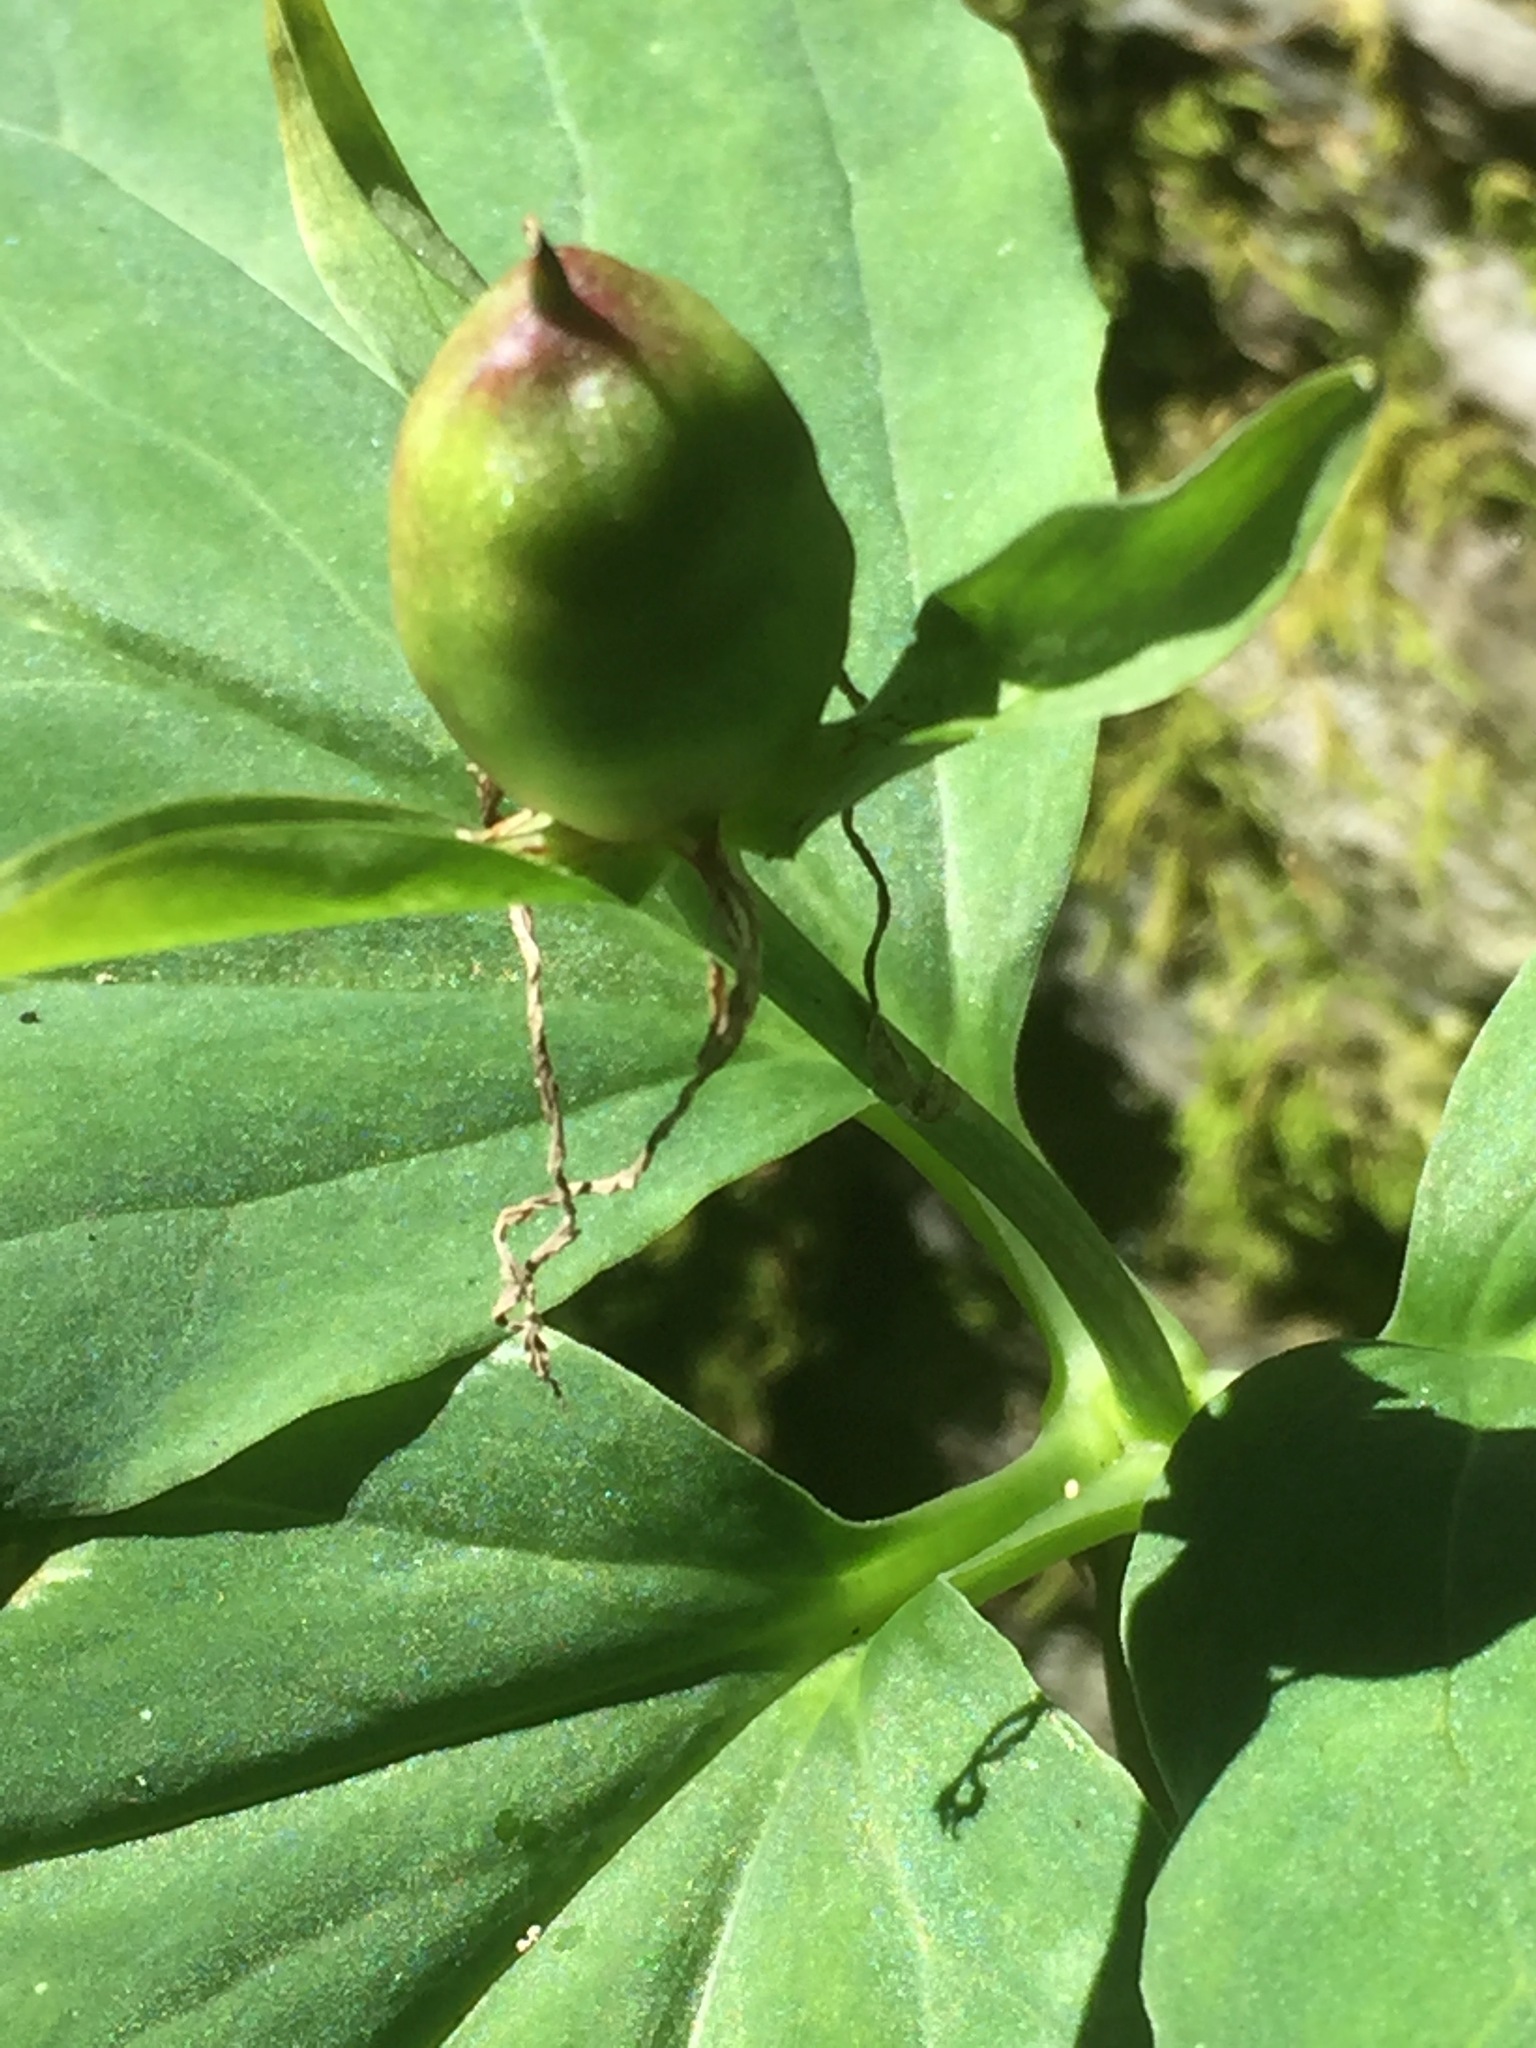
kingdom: Plantae
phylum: Tracheophyta
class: Liliopsida
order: Liliales
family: Melanthiaceae
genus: Trillium
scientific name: Trillium undulatum
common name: Paint trillium
